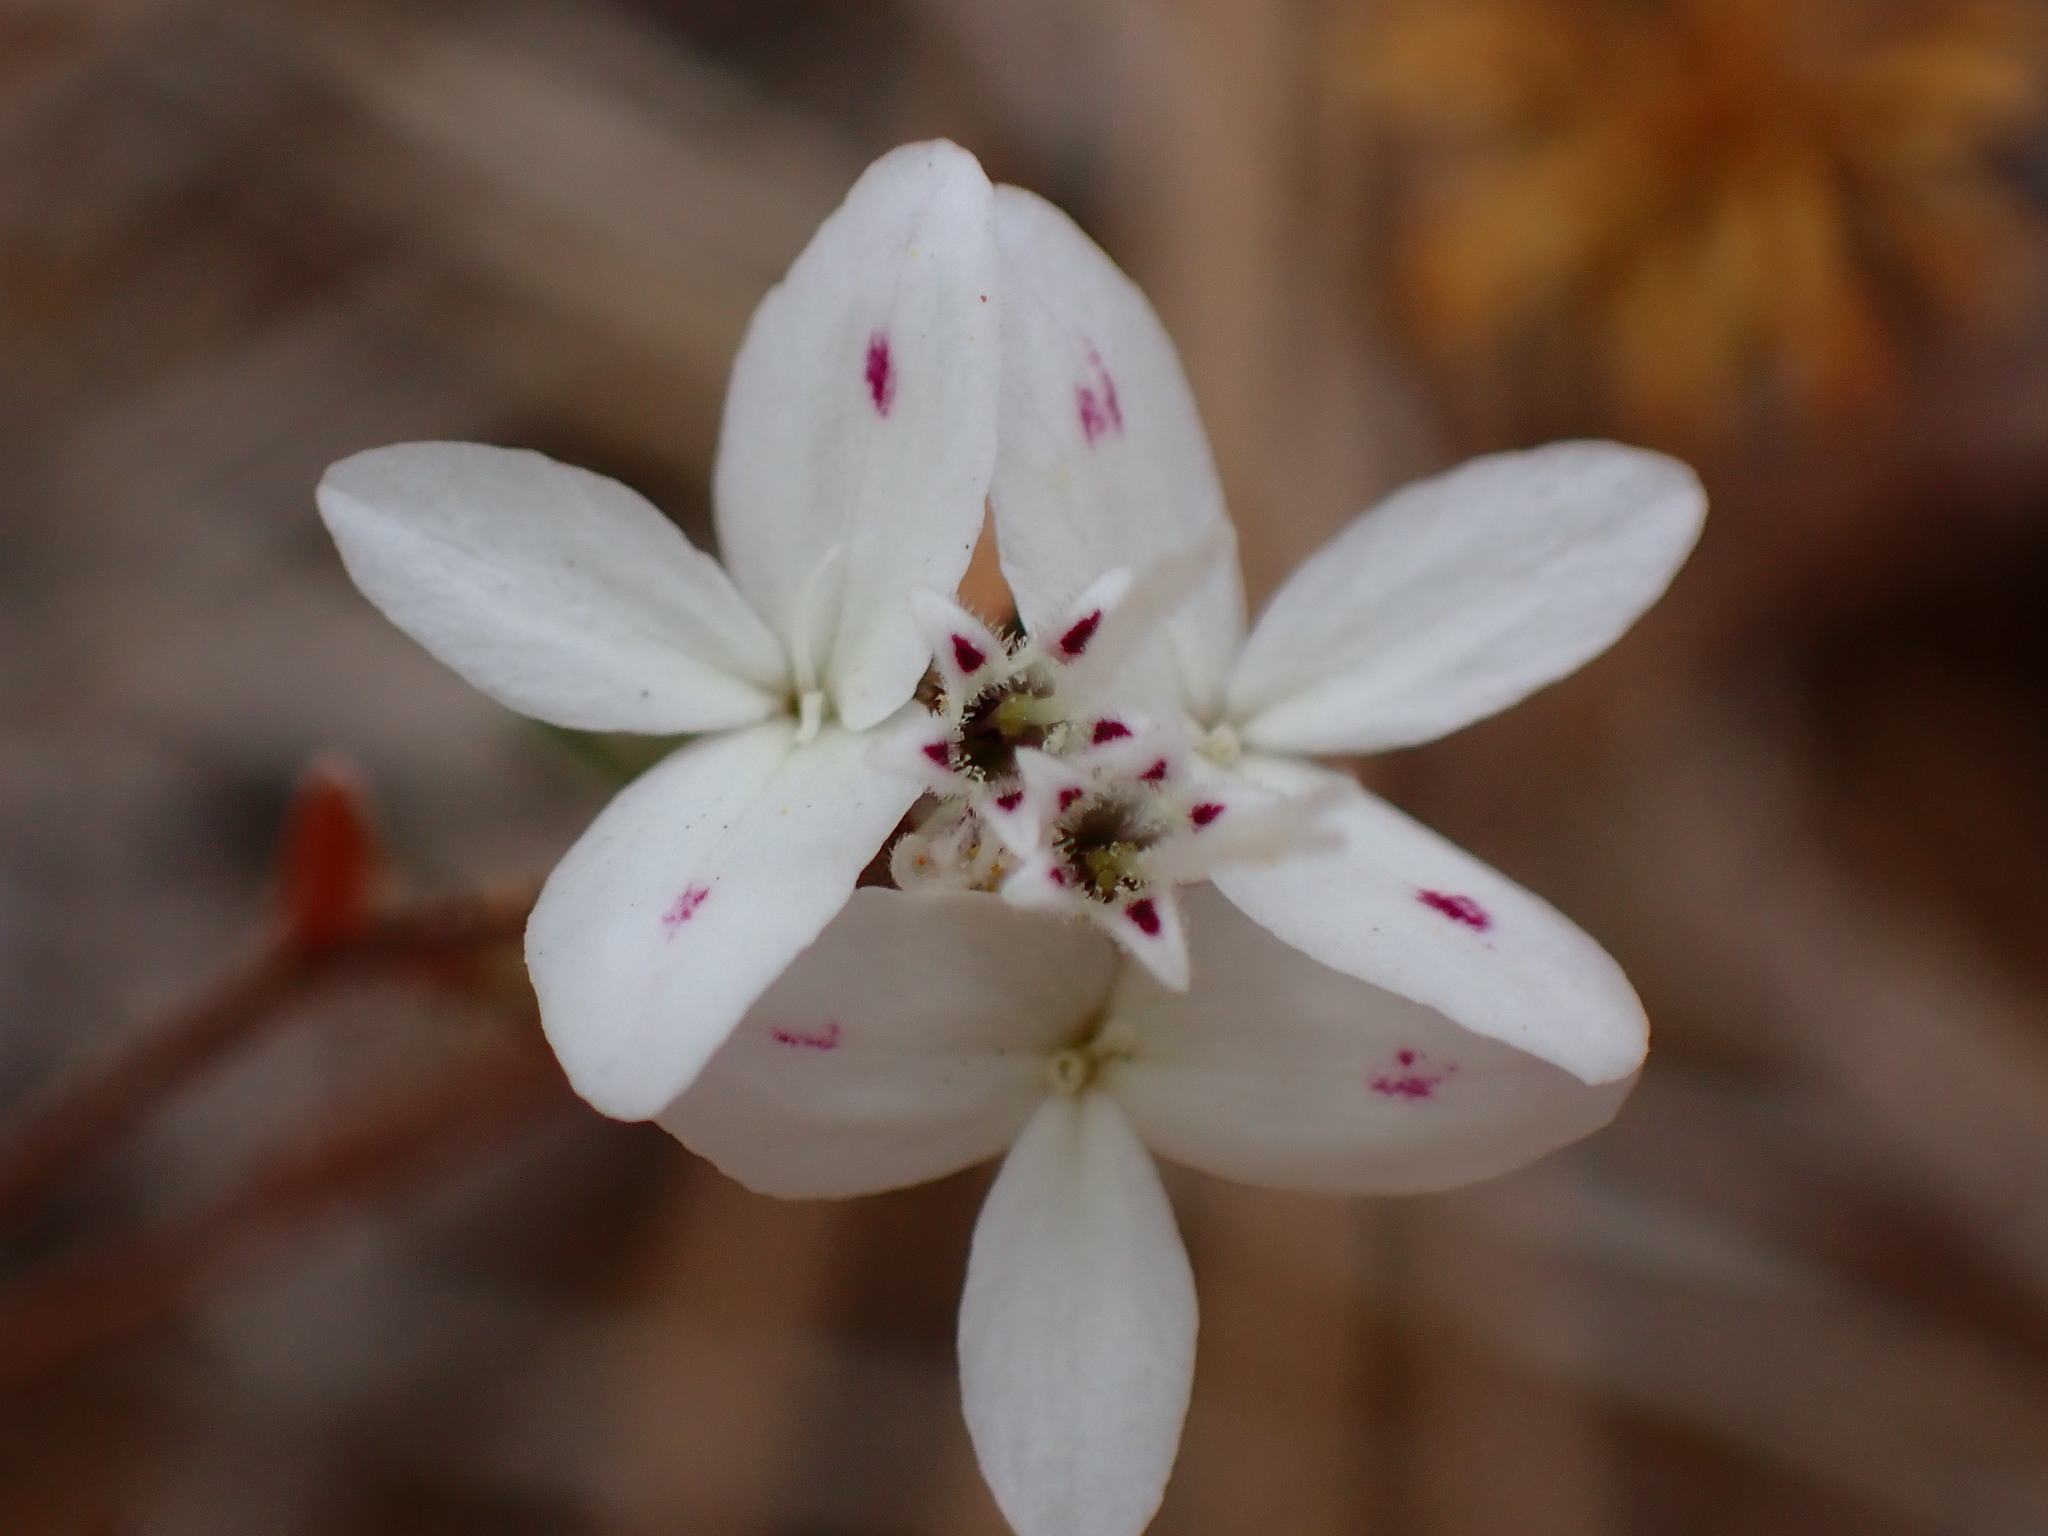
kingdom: Plantae
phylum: Tracheophyta
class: Magnoliopsida
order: Asterales
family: Asteraceae
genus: Osmadenia
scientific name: Osmadenia tenella
